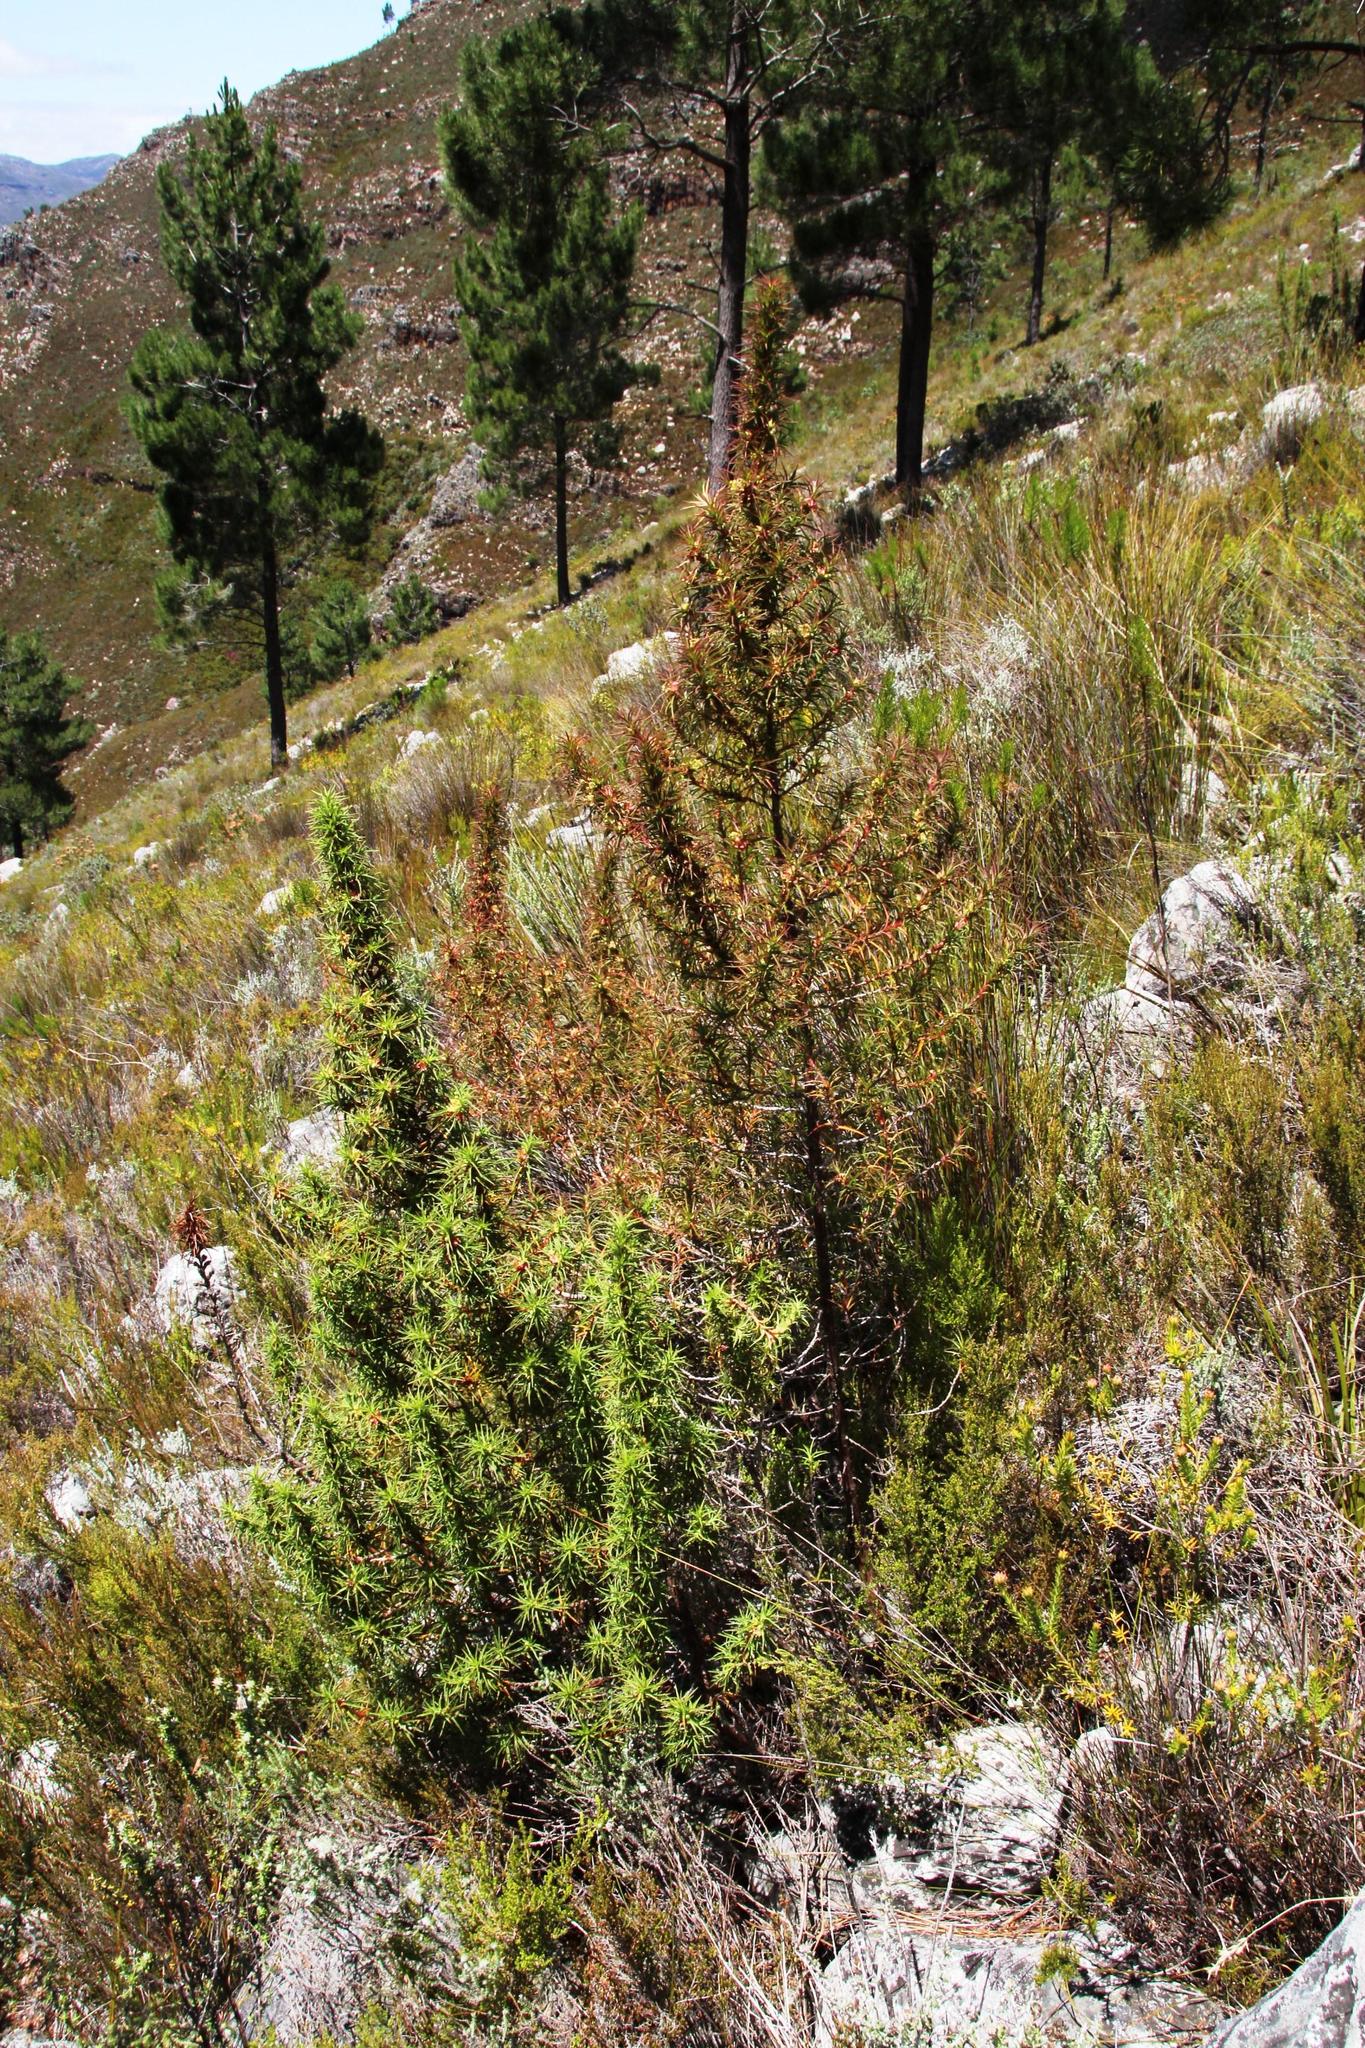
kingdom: Plantae
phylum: Tracheophyta
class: Magnoliopsida
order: Rosales
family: Rosaceae
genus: Cliffortia
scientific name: Cliffortia dregeana
